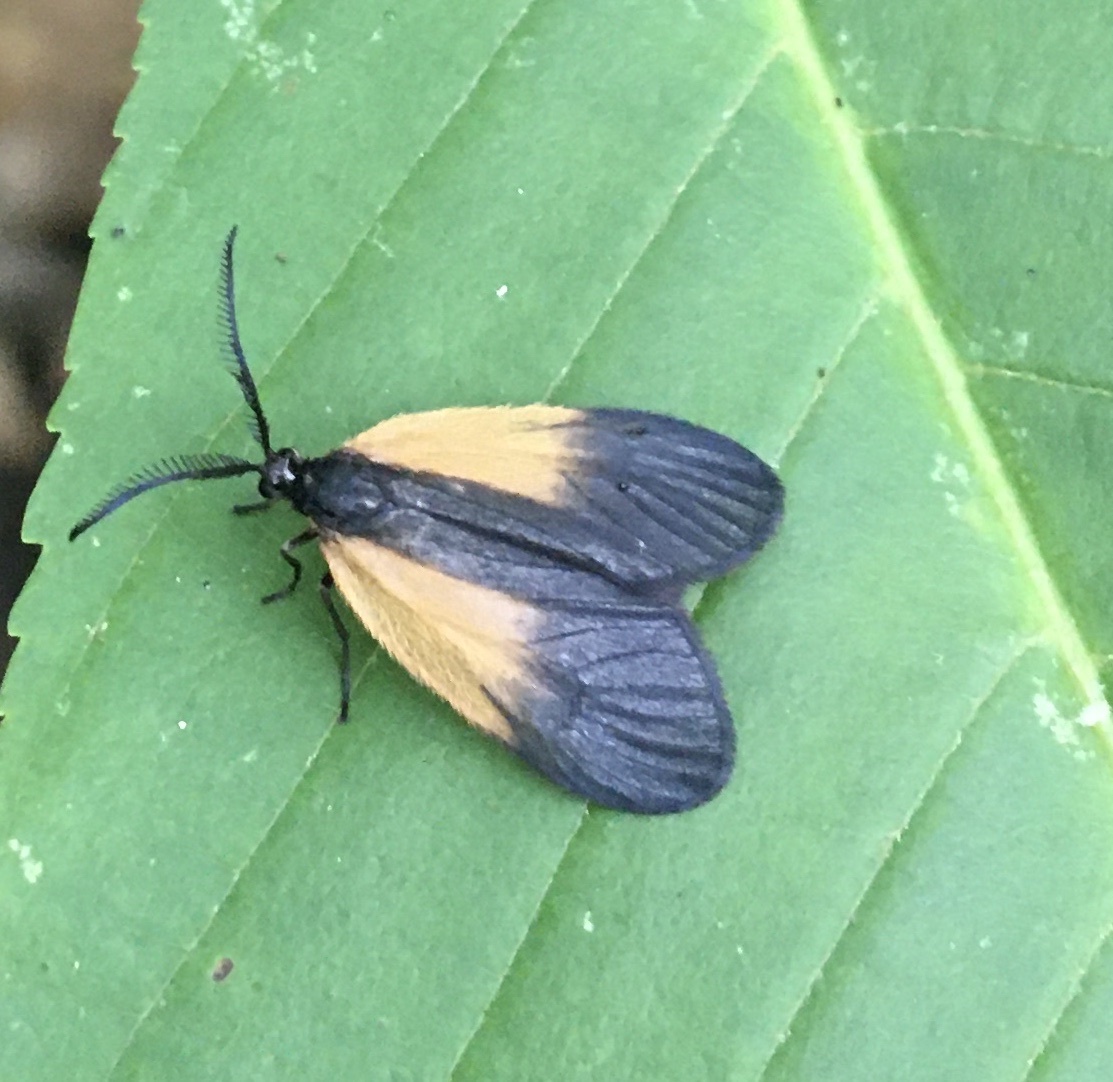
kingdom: Animalia
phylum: Arthropoda
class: Insecta
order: Lepidoptera
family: Zygaenidae
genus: Malthaca
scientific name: Malthaca dimidiata
